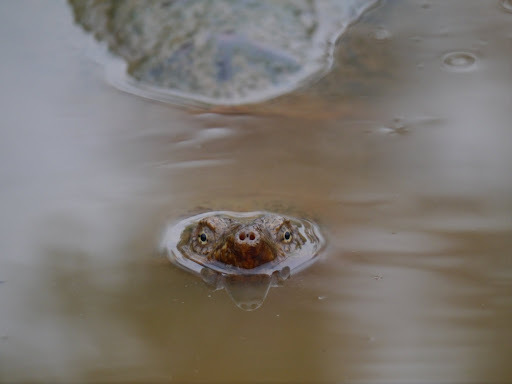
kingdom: Animalia
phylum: Chordata
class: Testudines
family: Chelydridae
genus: Chelydra
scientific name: Chelydra serpentina
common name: Common snapping turtle
